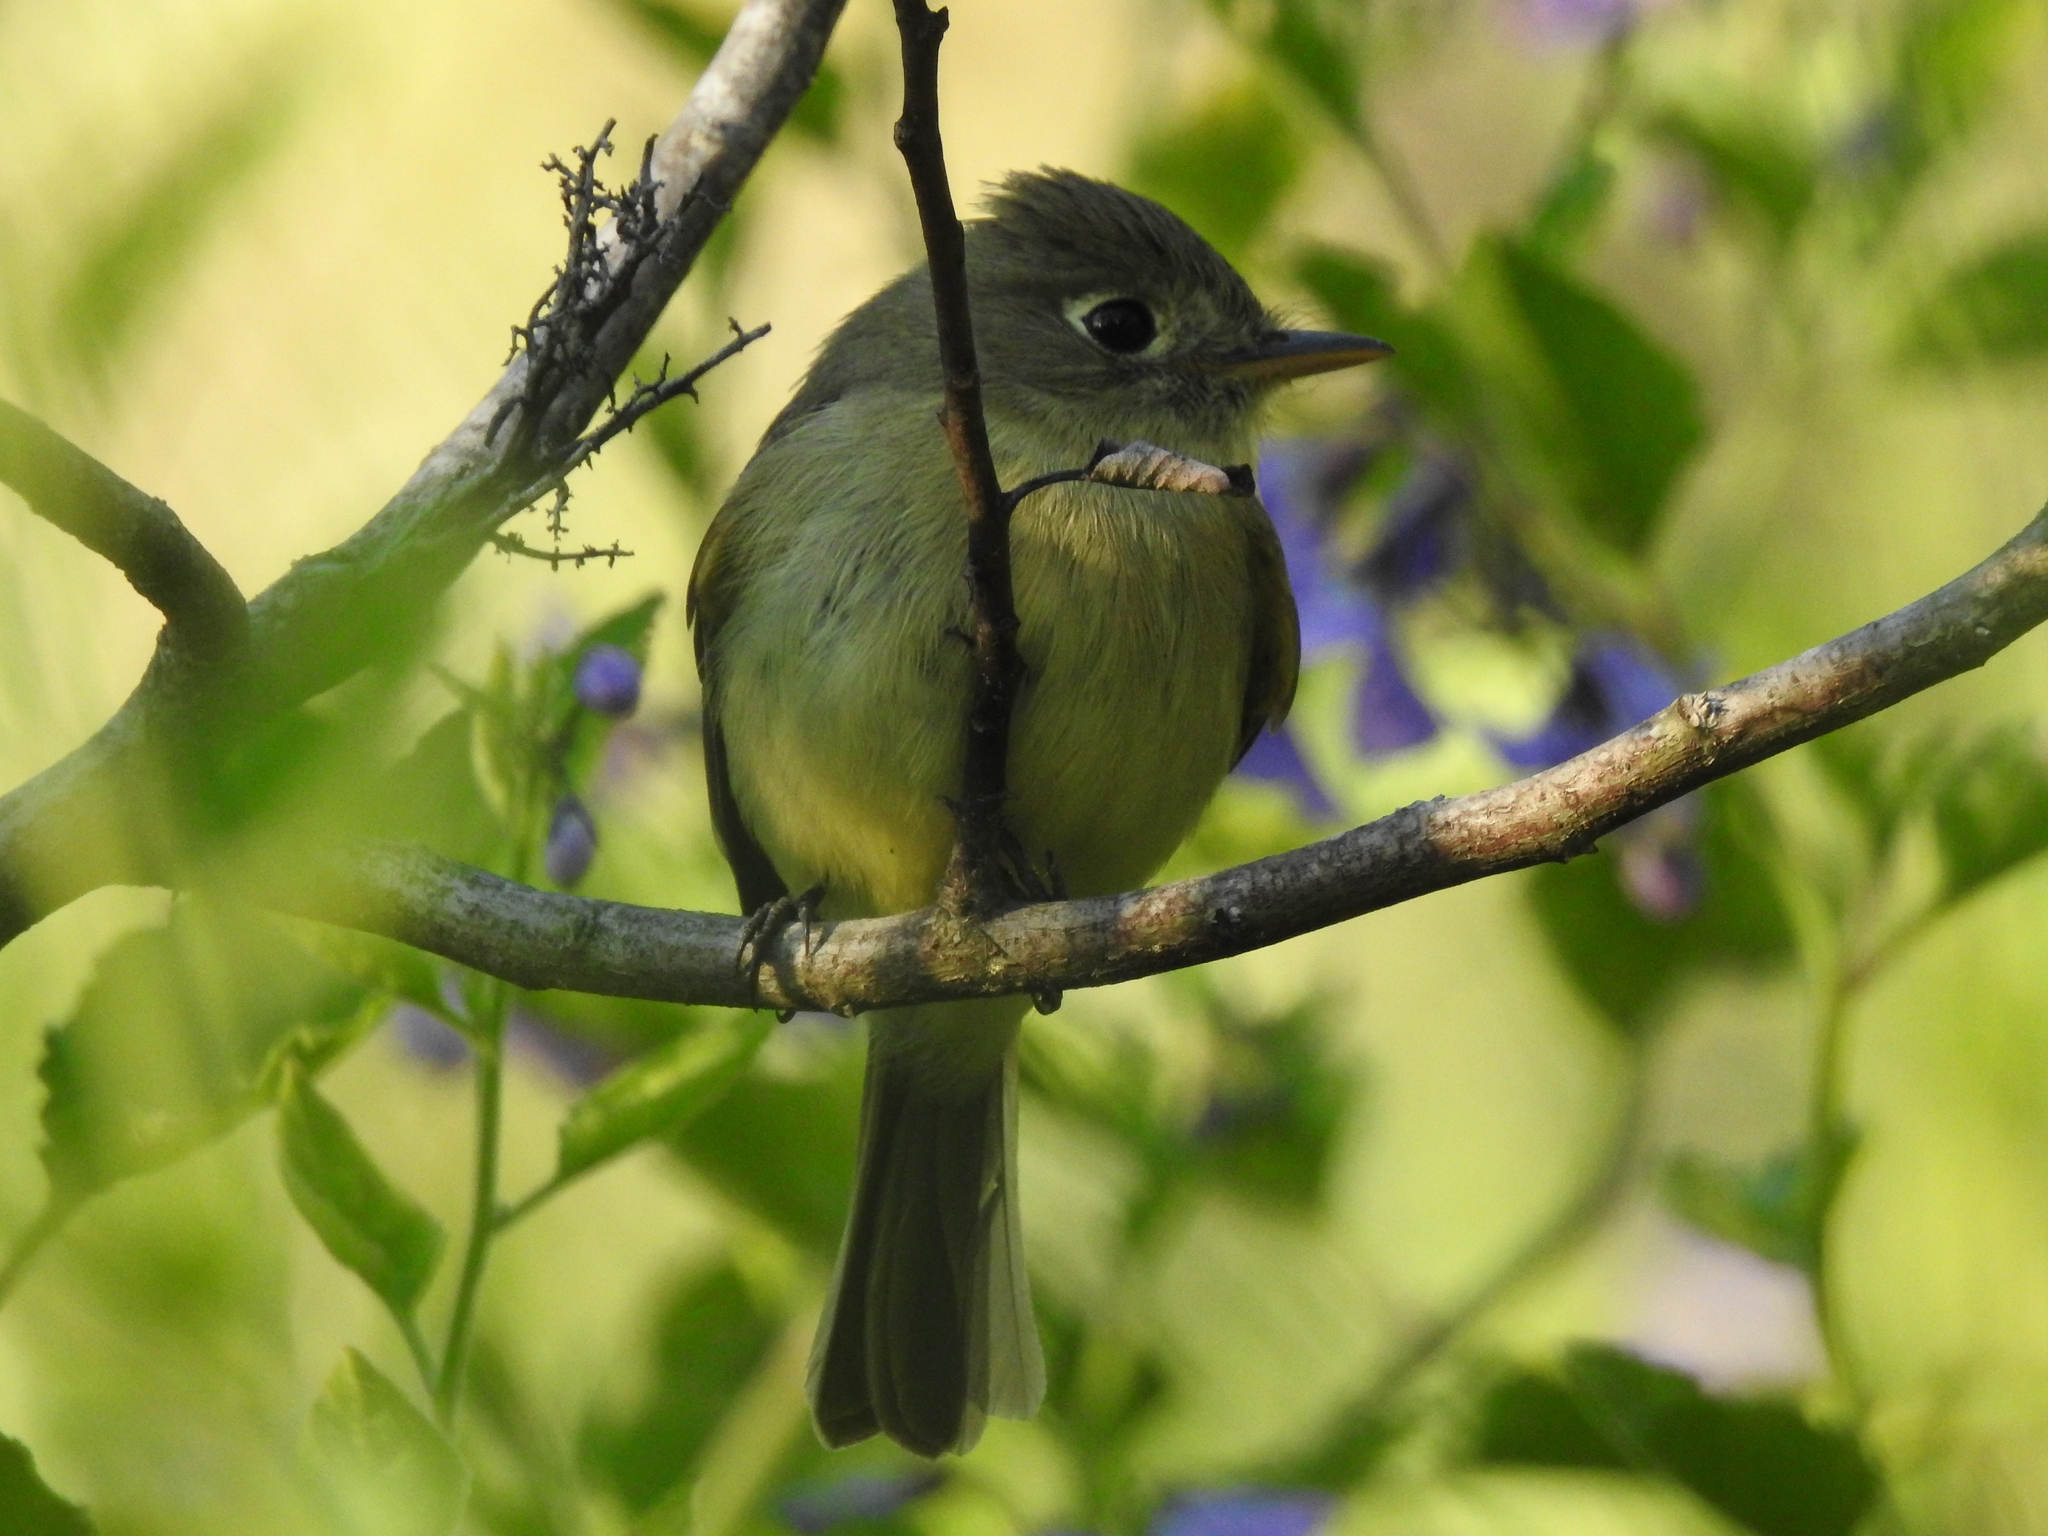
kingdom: Animalia
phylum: Chordata
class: Aves
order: Passeriformes
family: Tyrannidae
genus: Empidonax
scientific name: Empidonax difficilis
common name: Pacific-slope flycatcher
